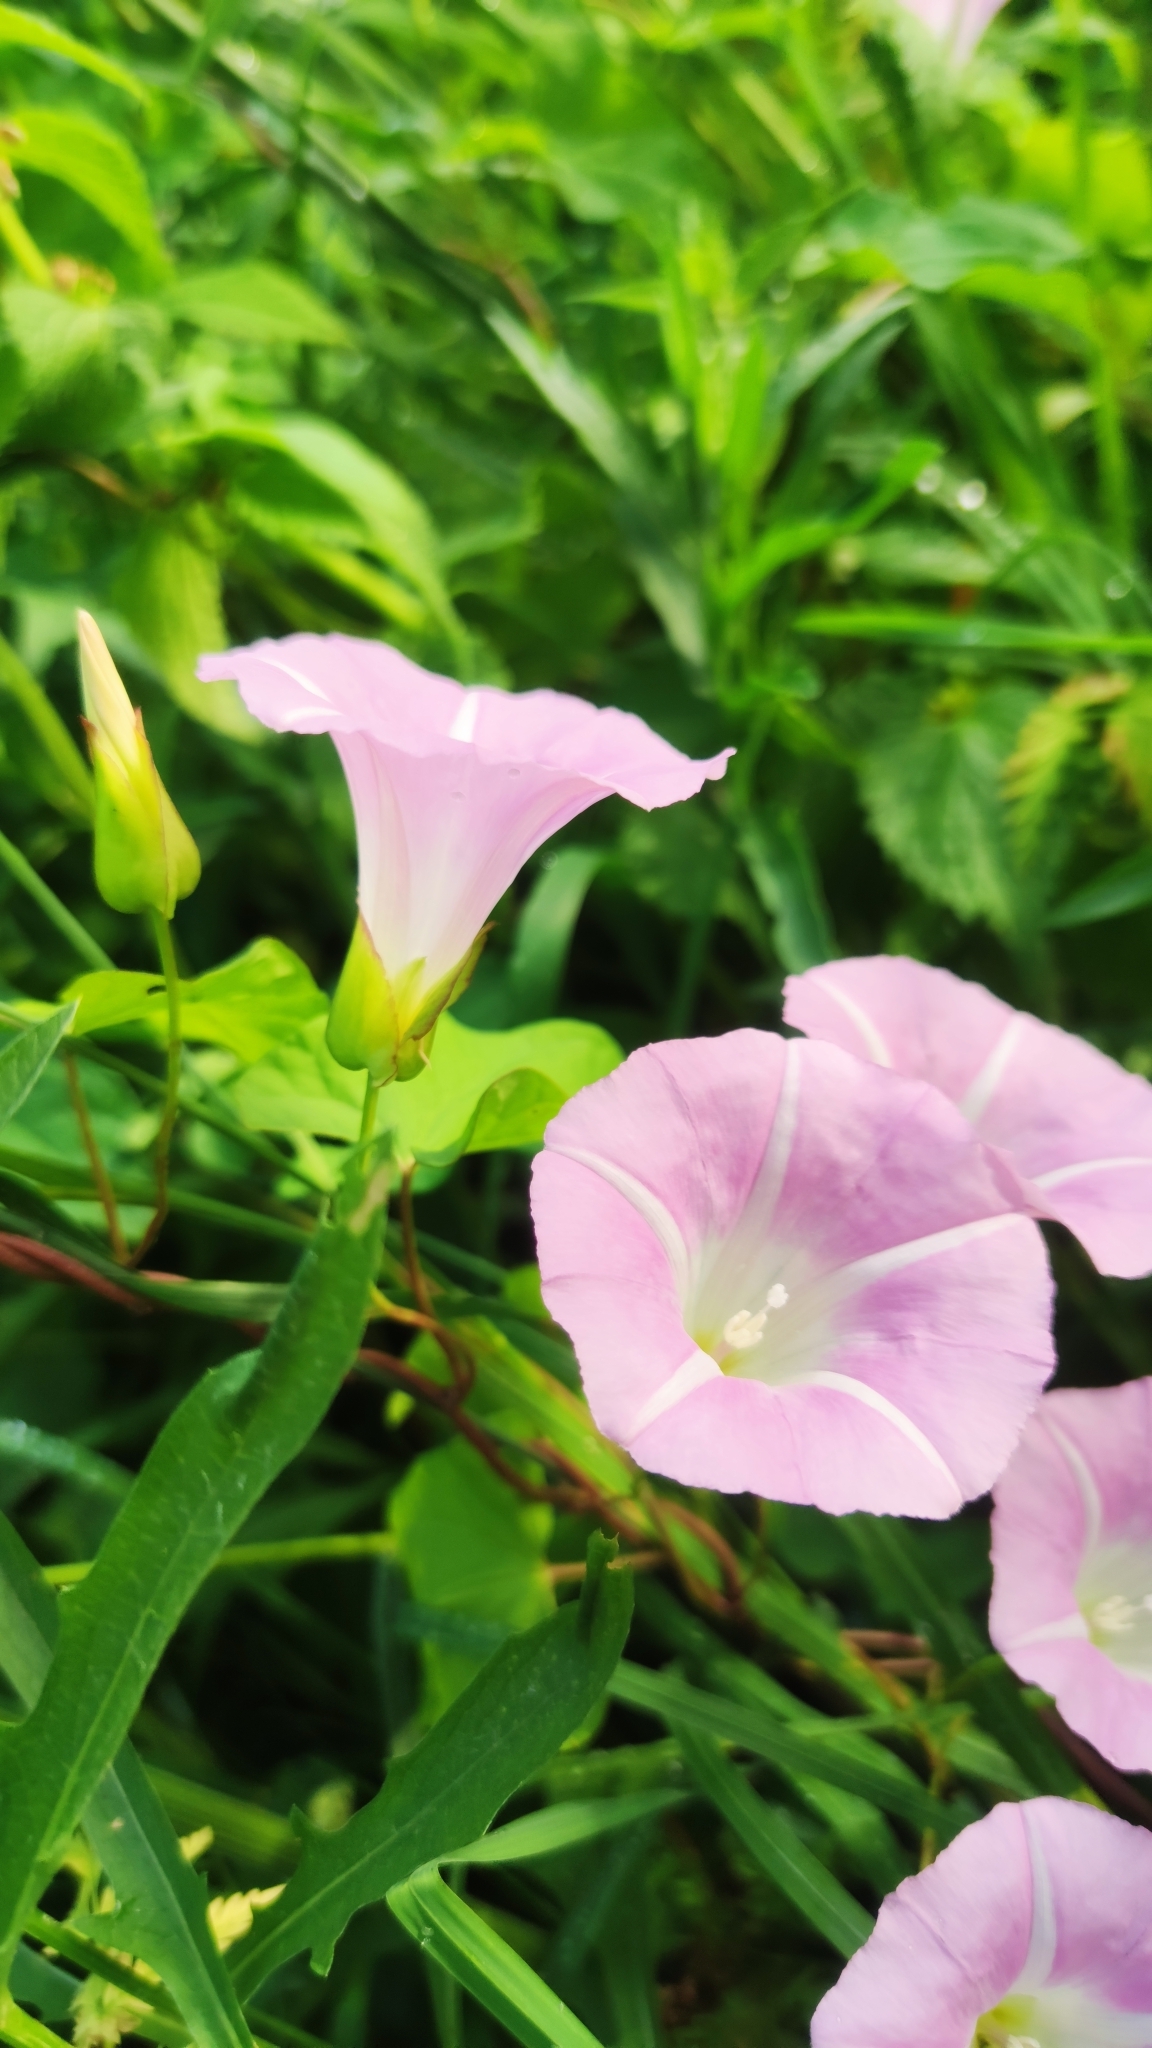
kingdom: Plantae
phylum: Tracheophyta
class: Magnoliopsida
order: Solanales
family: Convolvulaceae
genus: Calystegia
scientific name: Calystegia sepium
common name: Hedge bindweed
